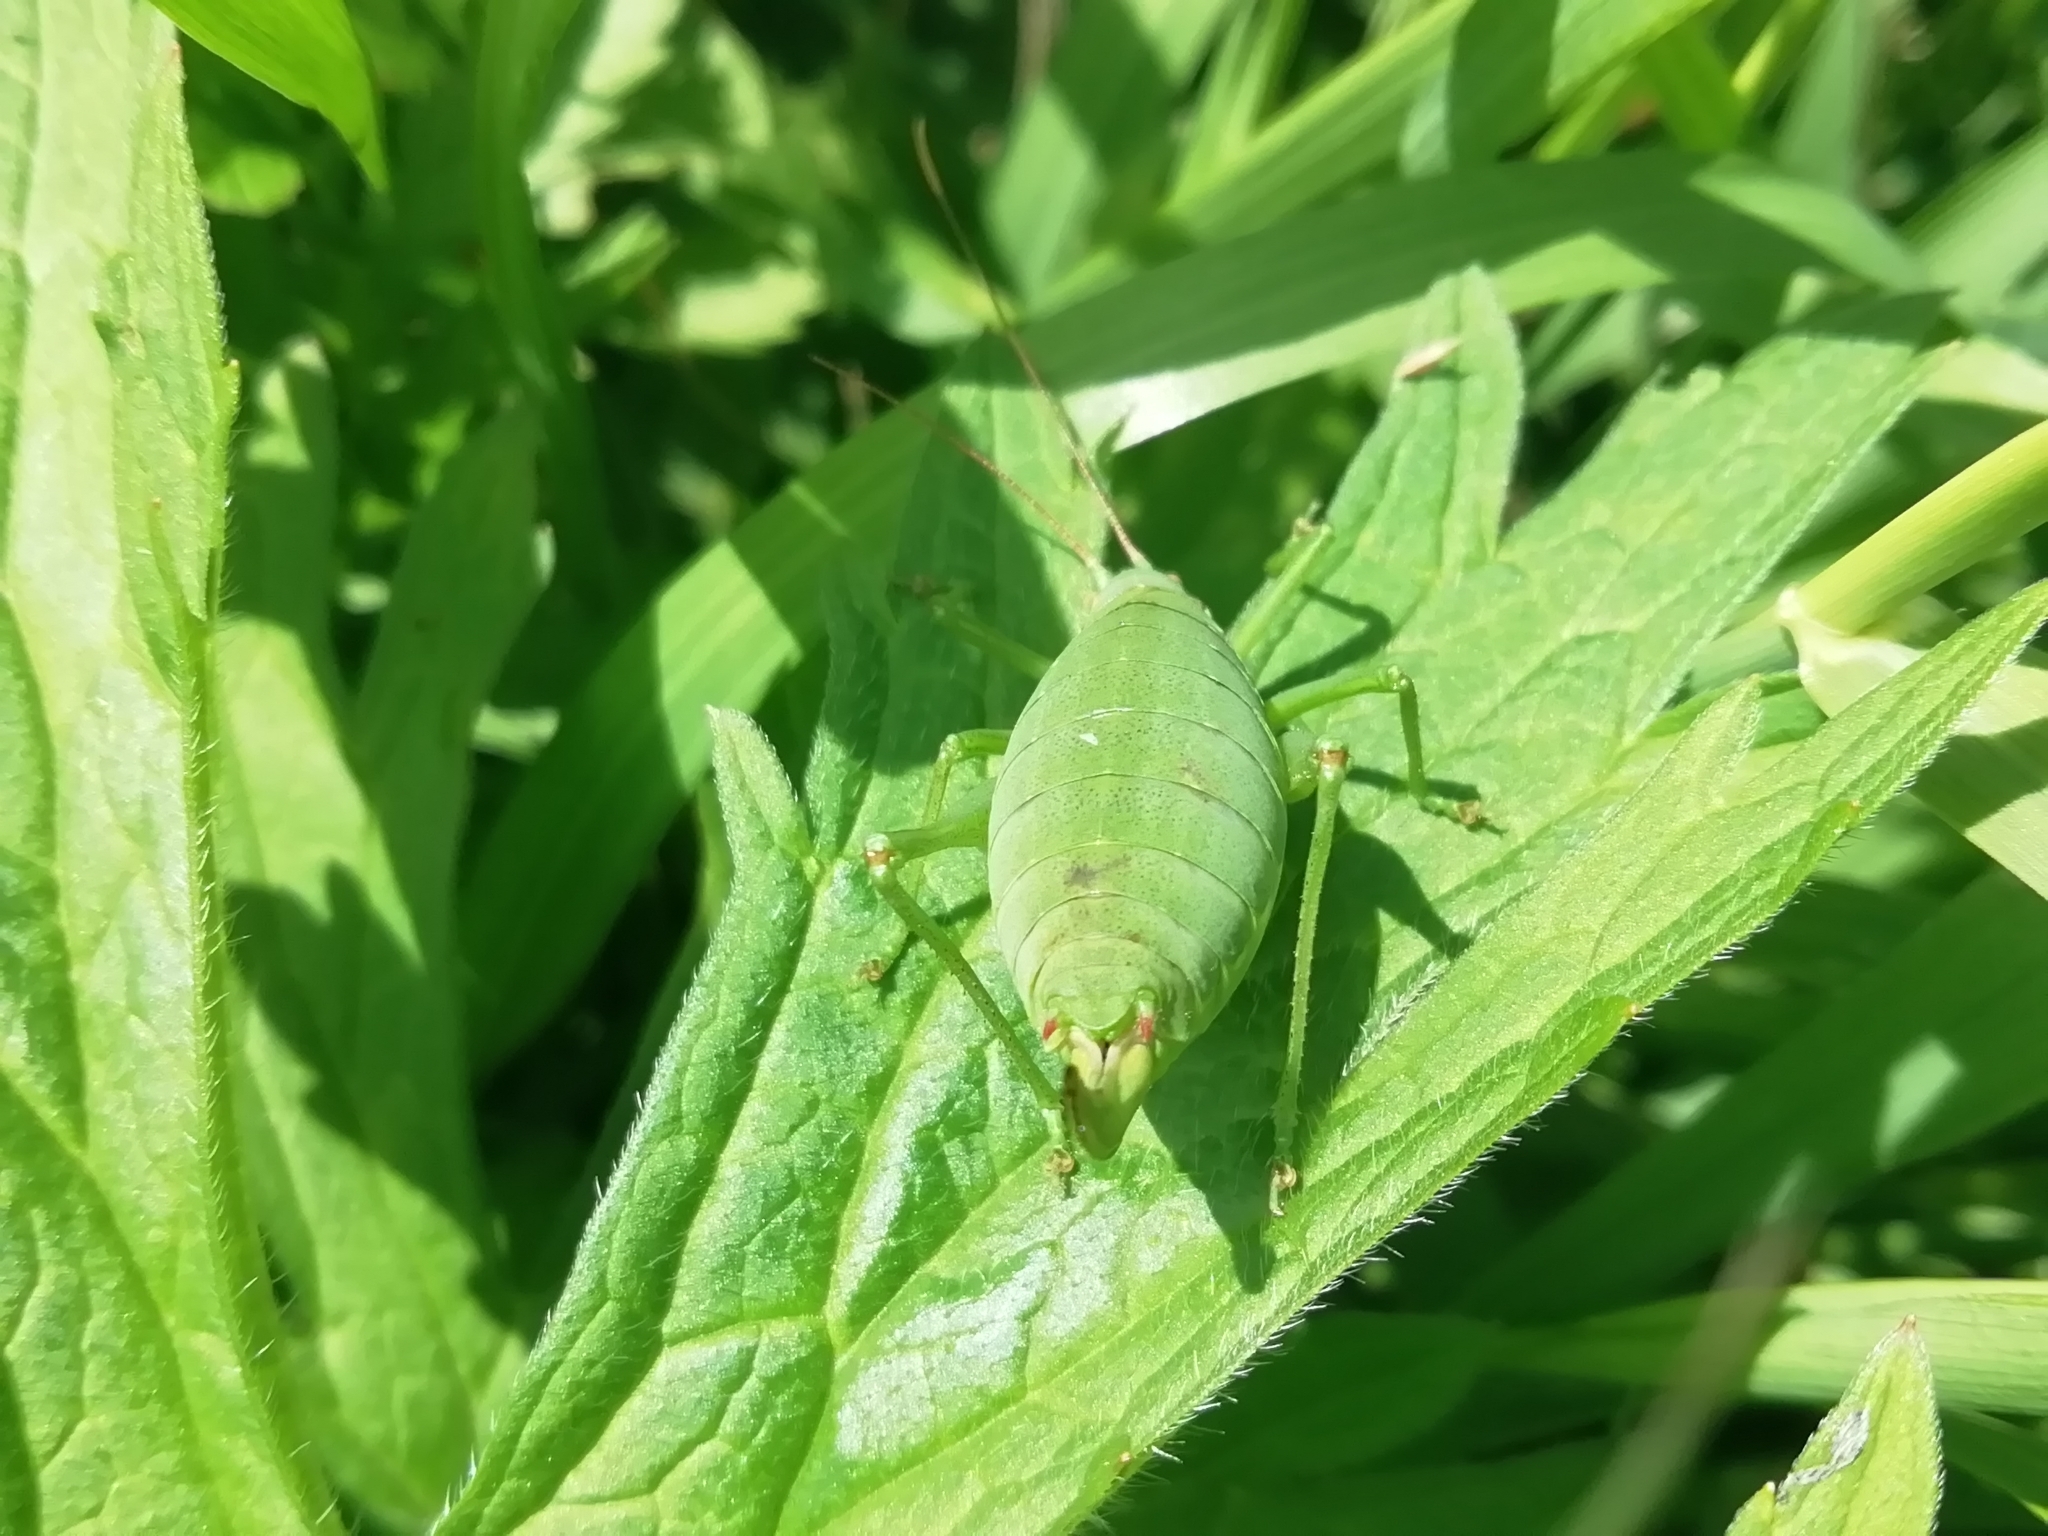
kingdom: Animalia
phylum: Arthropoda
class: Insecta
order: Orthoptera
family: Tettigoniidae
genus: Isophya
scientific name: Isophya altaica
